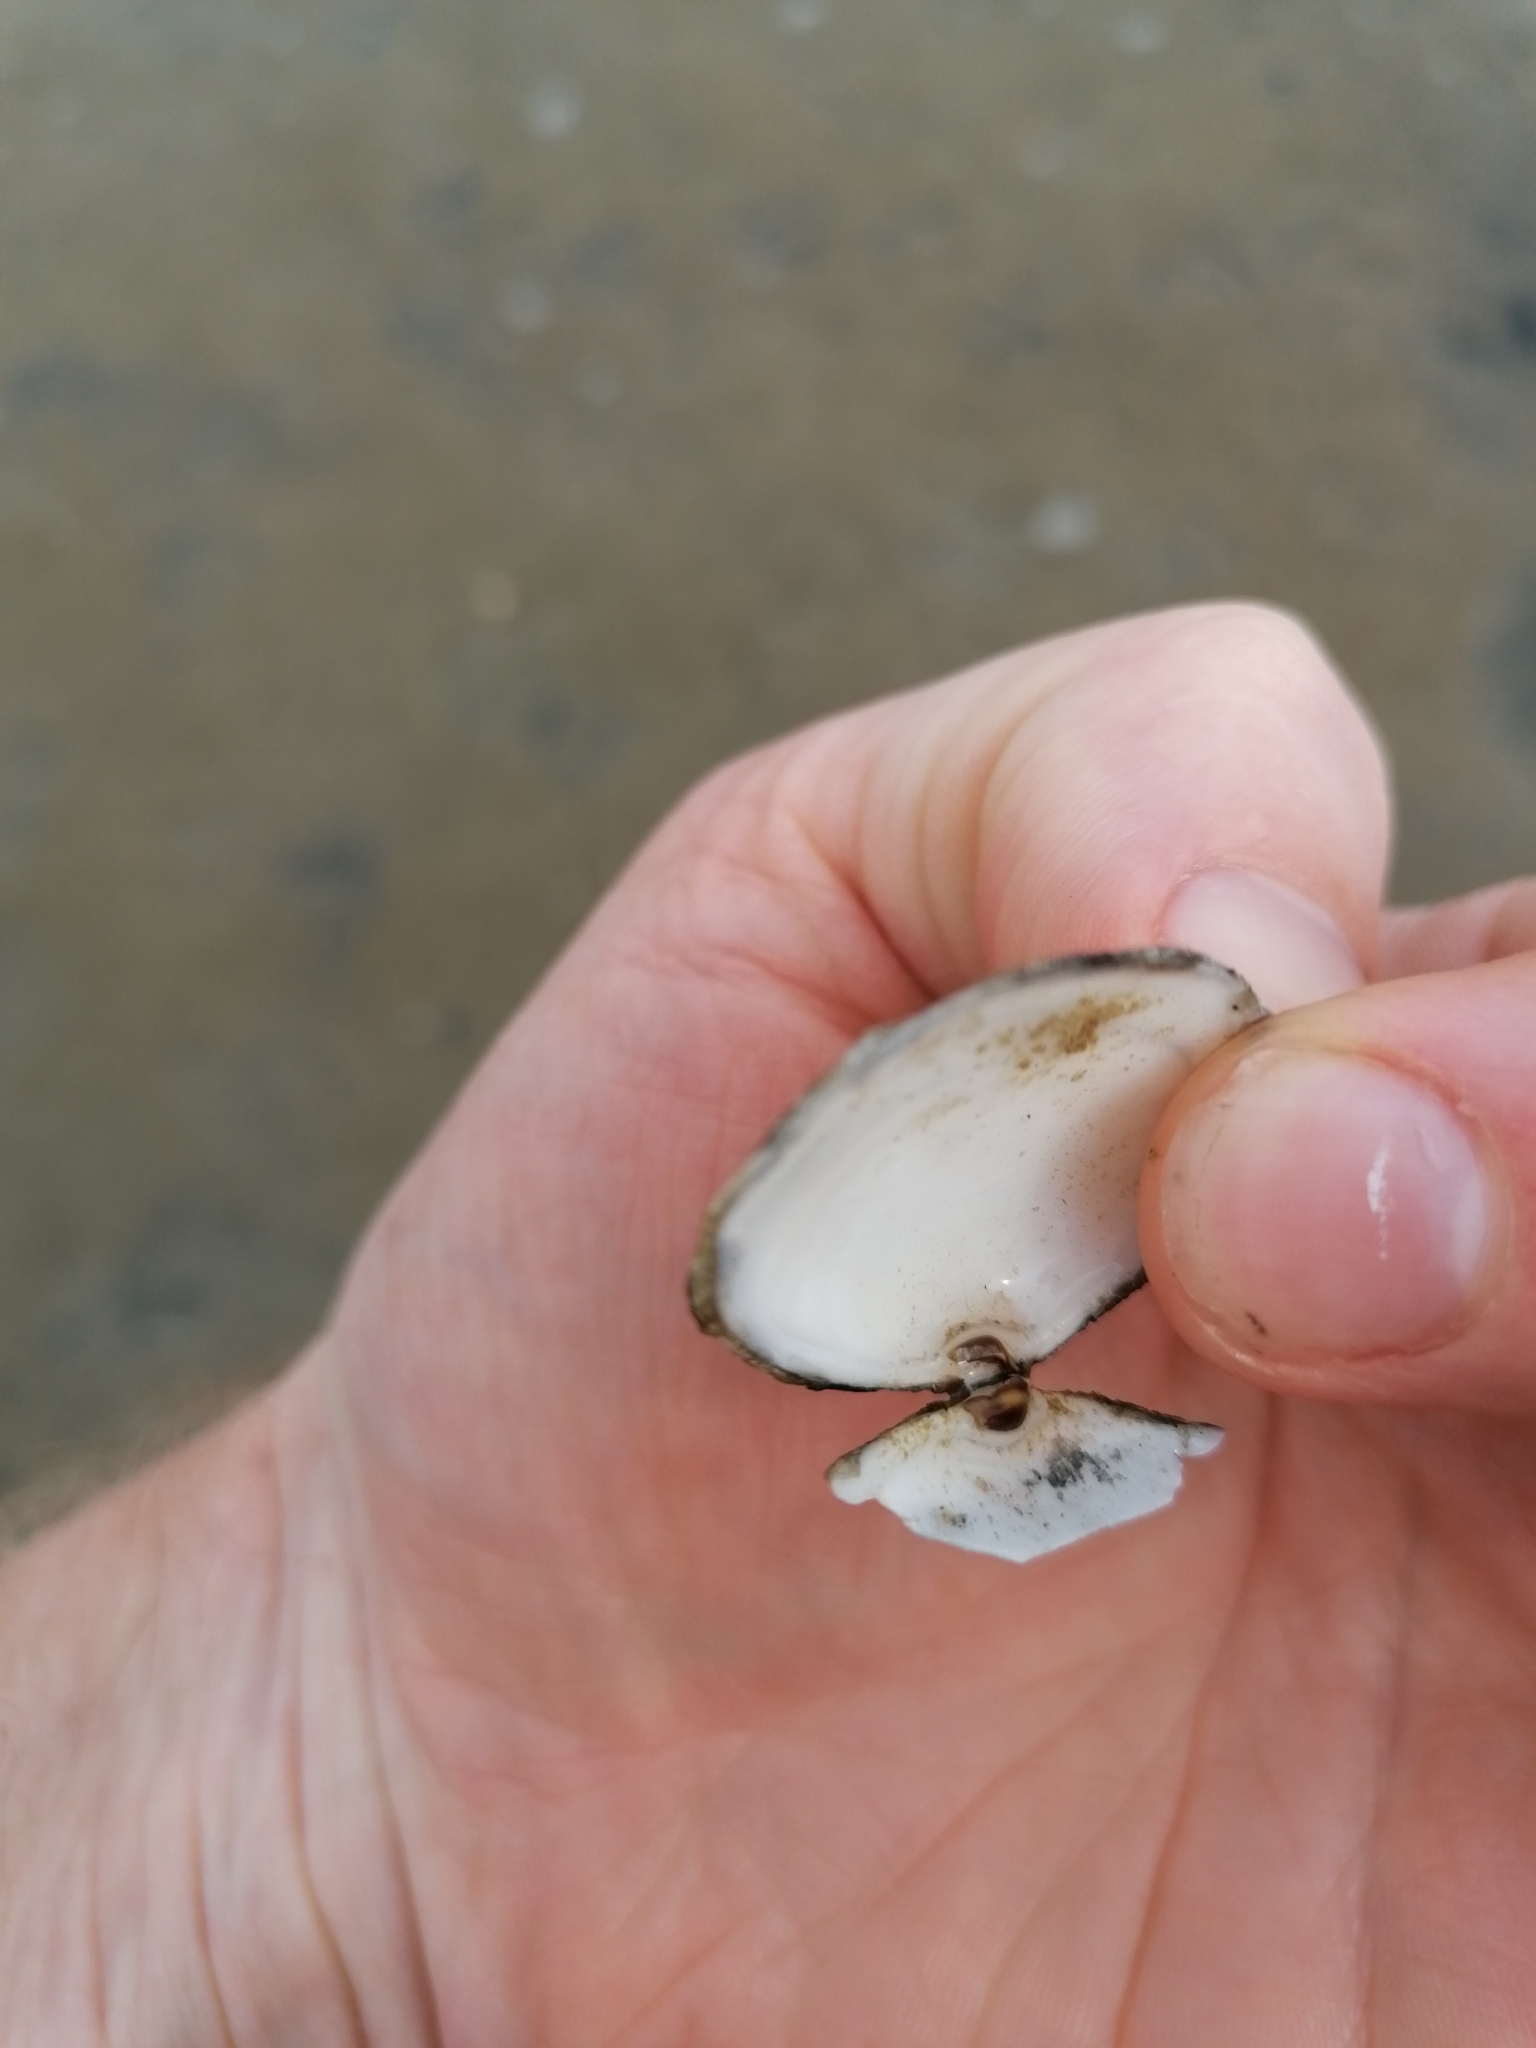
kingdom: Animalia
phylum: Mollusca
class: Bivalvia
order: Cardiida
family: Semelidae
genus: Scrobicularia
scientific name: Scrobicularia plana
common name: Peppery furrow shell
